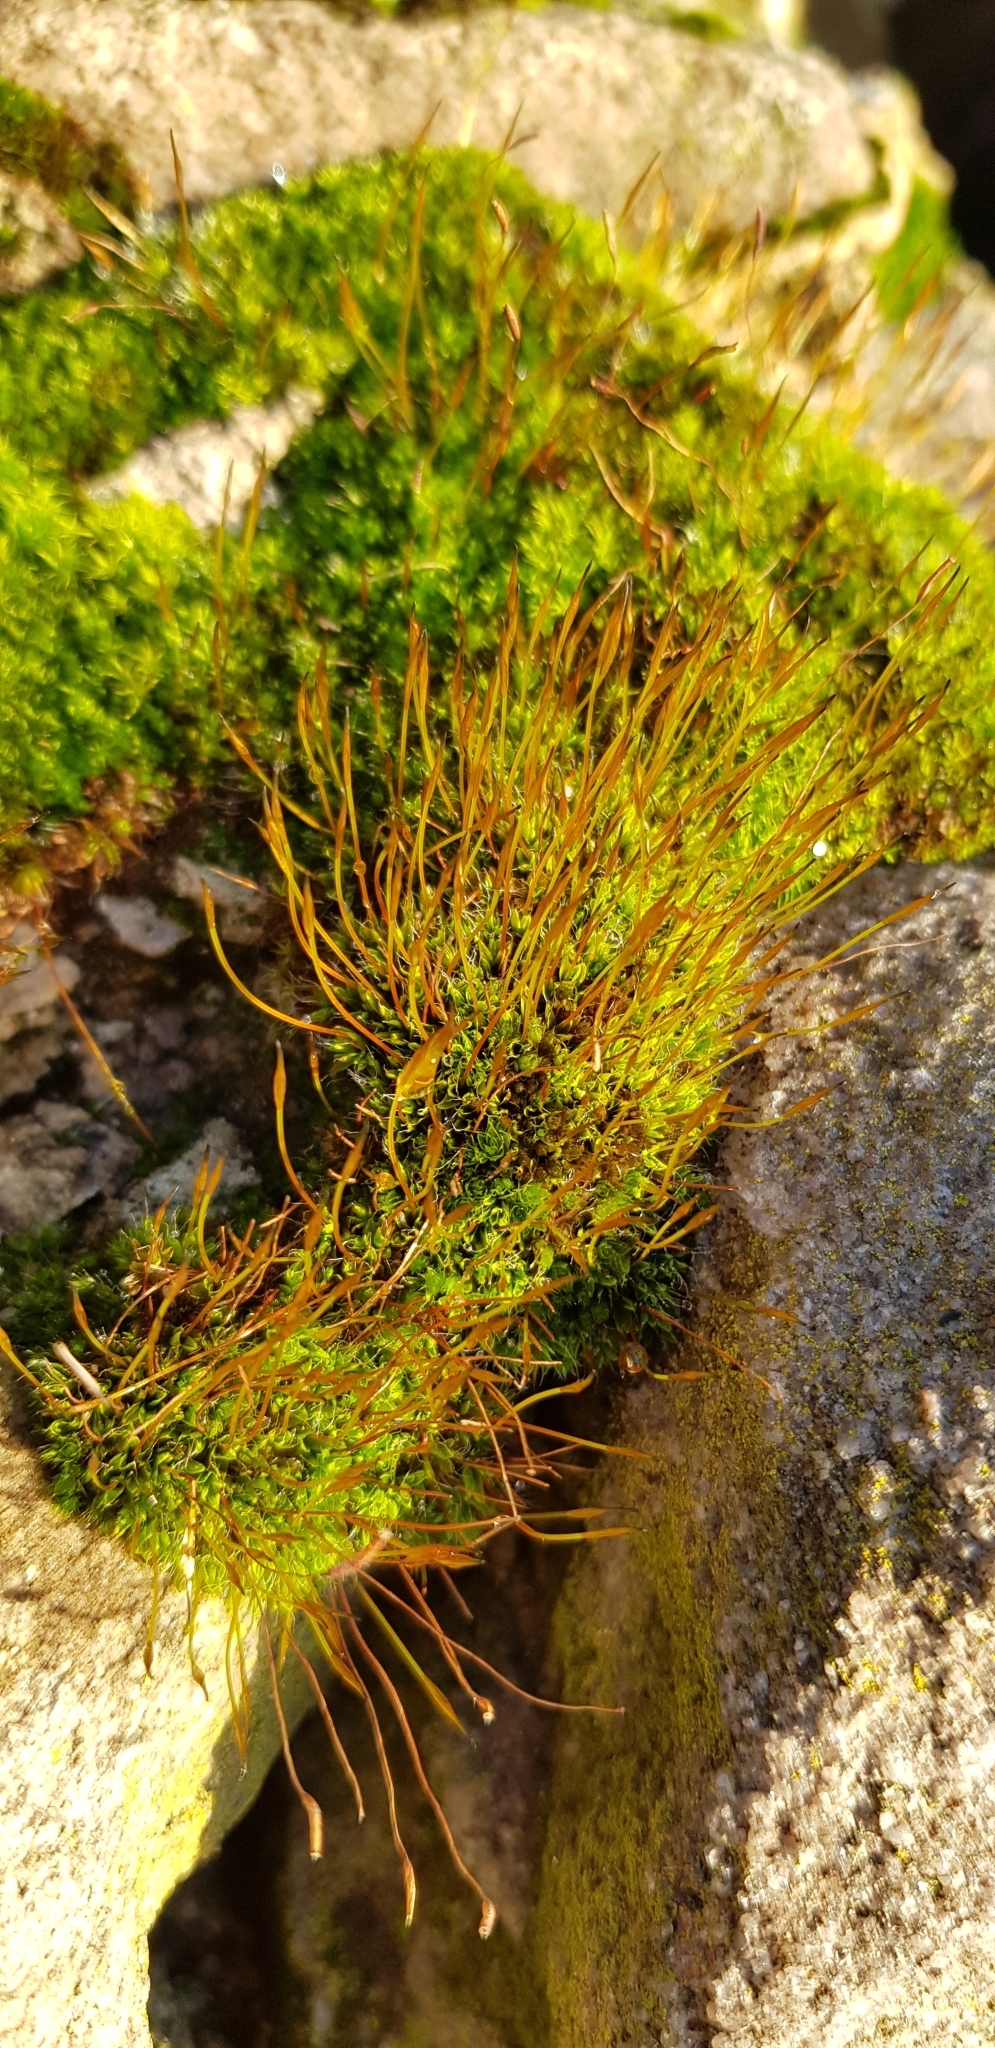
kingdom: Plantae
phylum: Bryophyta
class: Bryopsida
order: Pottiales
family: Pottiaceae
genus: Tortula
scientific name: Tortula muralis
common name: Wall screw-moss
